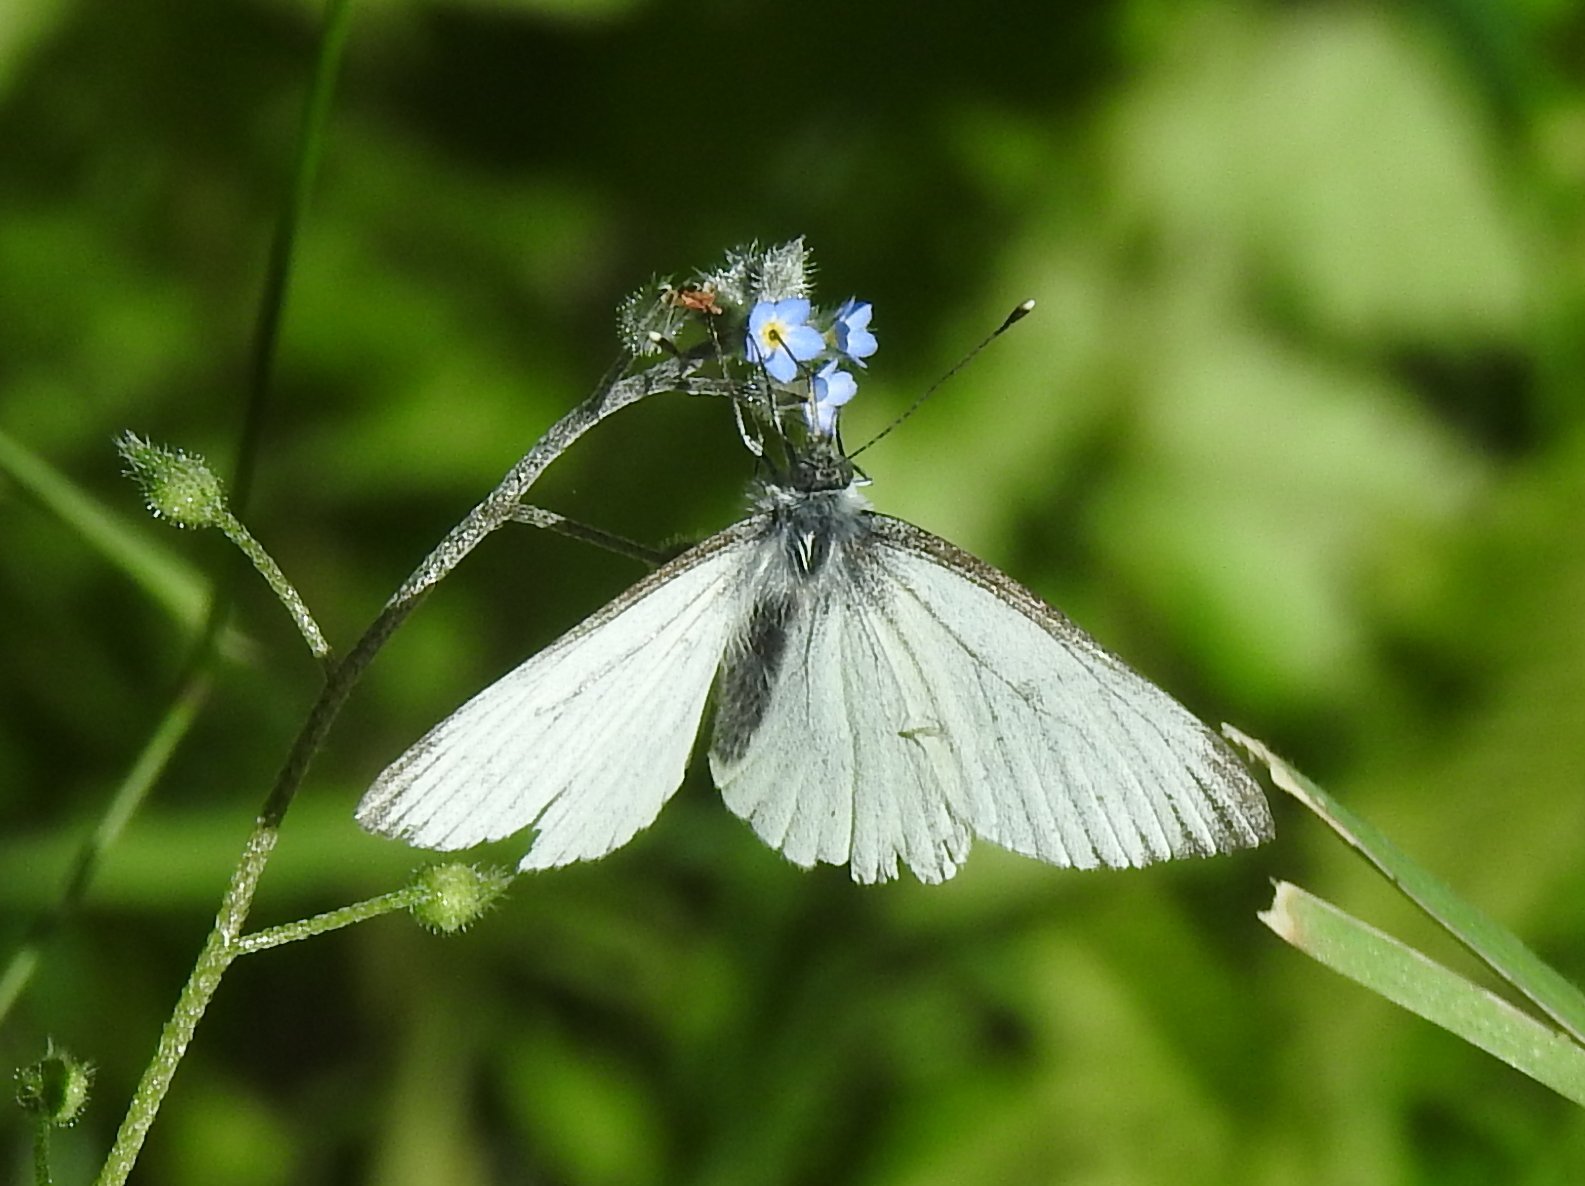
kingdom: Animalia
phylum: Arthropoda
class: Insecta
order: Lepidoptera
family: Pieridae
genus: Pieris
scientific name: Pieris napi
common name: Green-veined white
